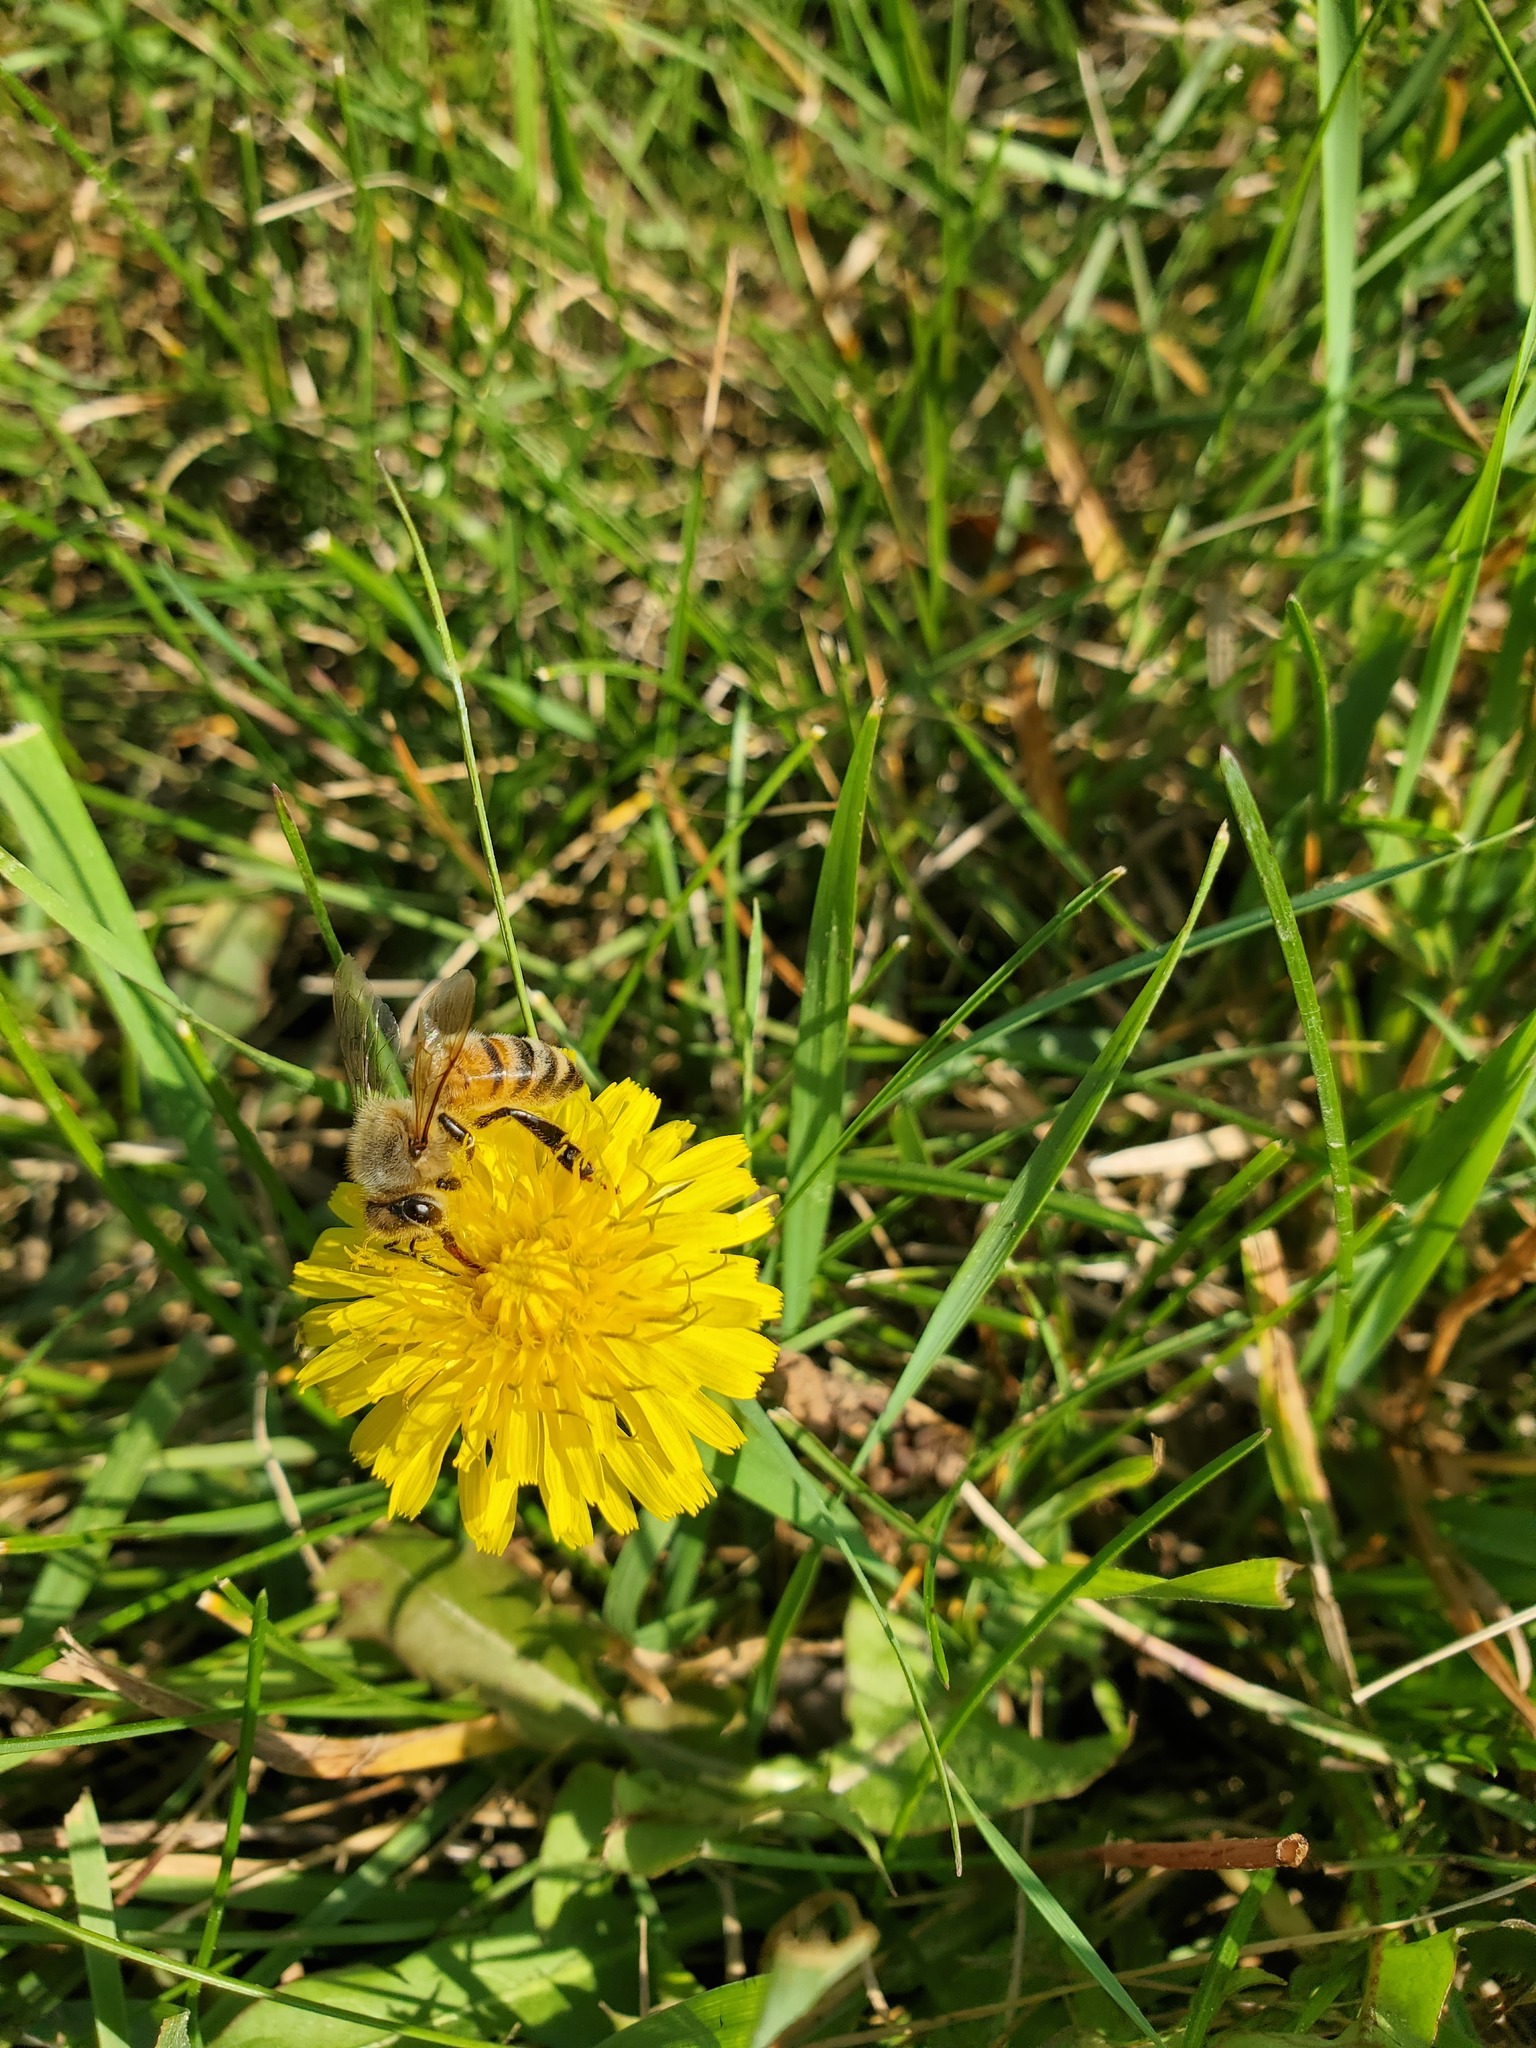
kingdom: Plantae
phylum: Tracheophyta
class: Magnoliopsida
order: Asterales
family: Asteraceae
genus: Taraxacum
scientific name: Taraxacum officinale
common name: Common dandelion
